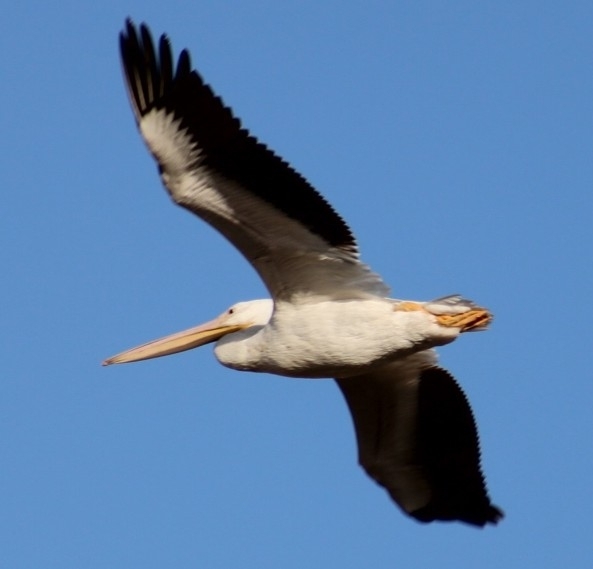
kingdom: Animalia
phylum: Chordata
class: Aves
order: Pelecaniformes
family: Pelecanidae
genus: Pelecanus
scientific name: Pelecanus erythrorhynchos
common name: American white pelican
